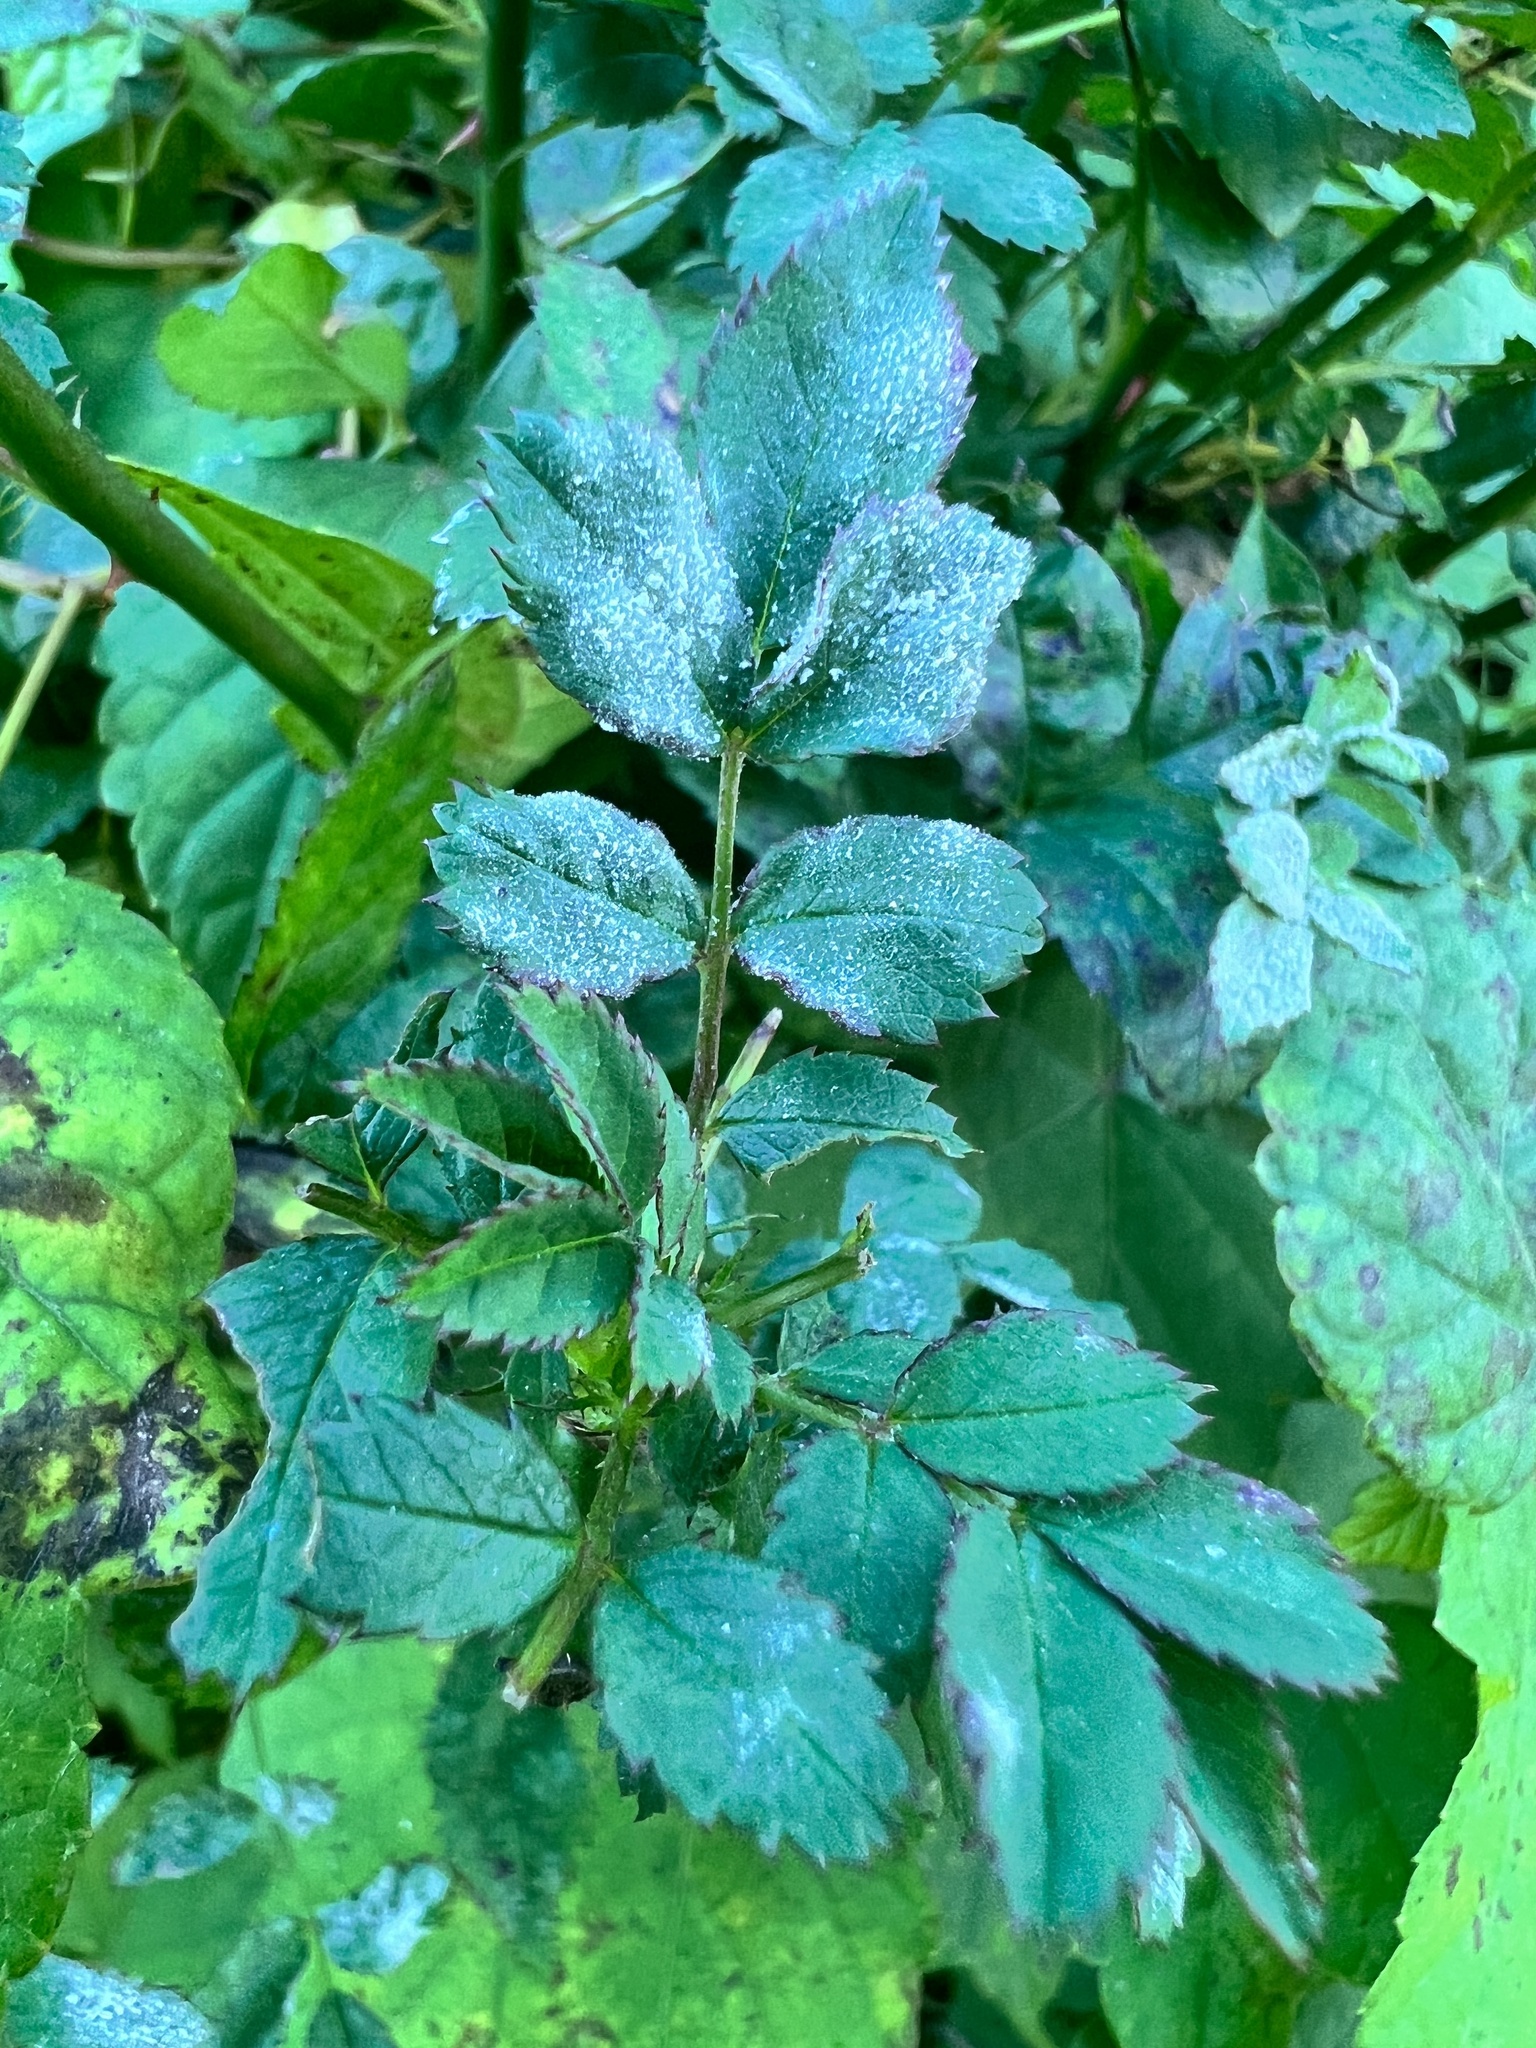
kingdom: Fungi
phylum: Ascomycota
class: Leotiomycetes
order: Helotiales
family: Erysiphaceae
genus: Podosphaera
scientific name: Podosphaera pannosa
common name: Rose mildew
